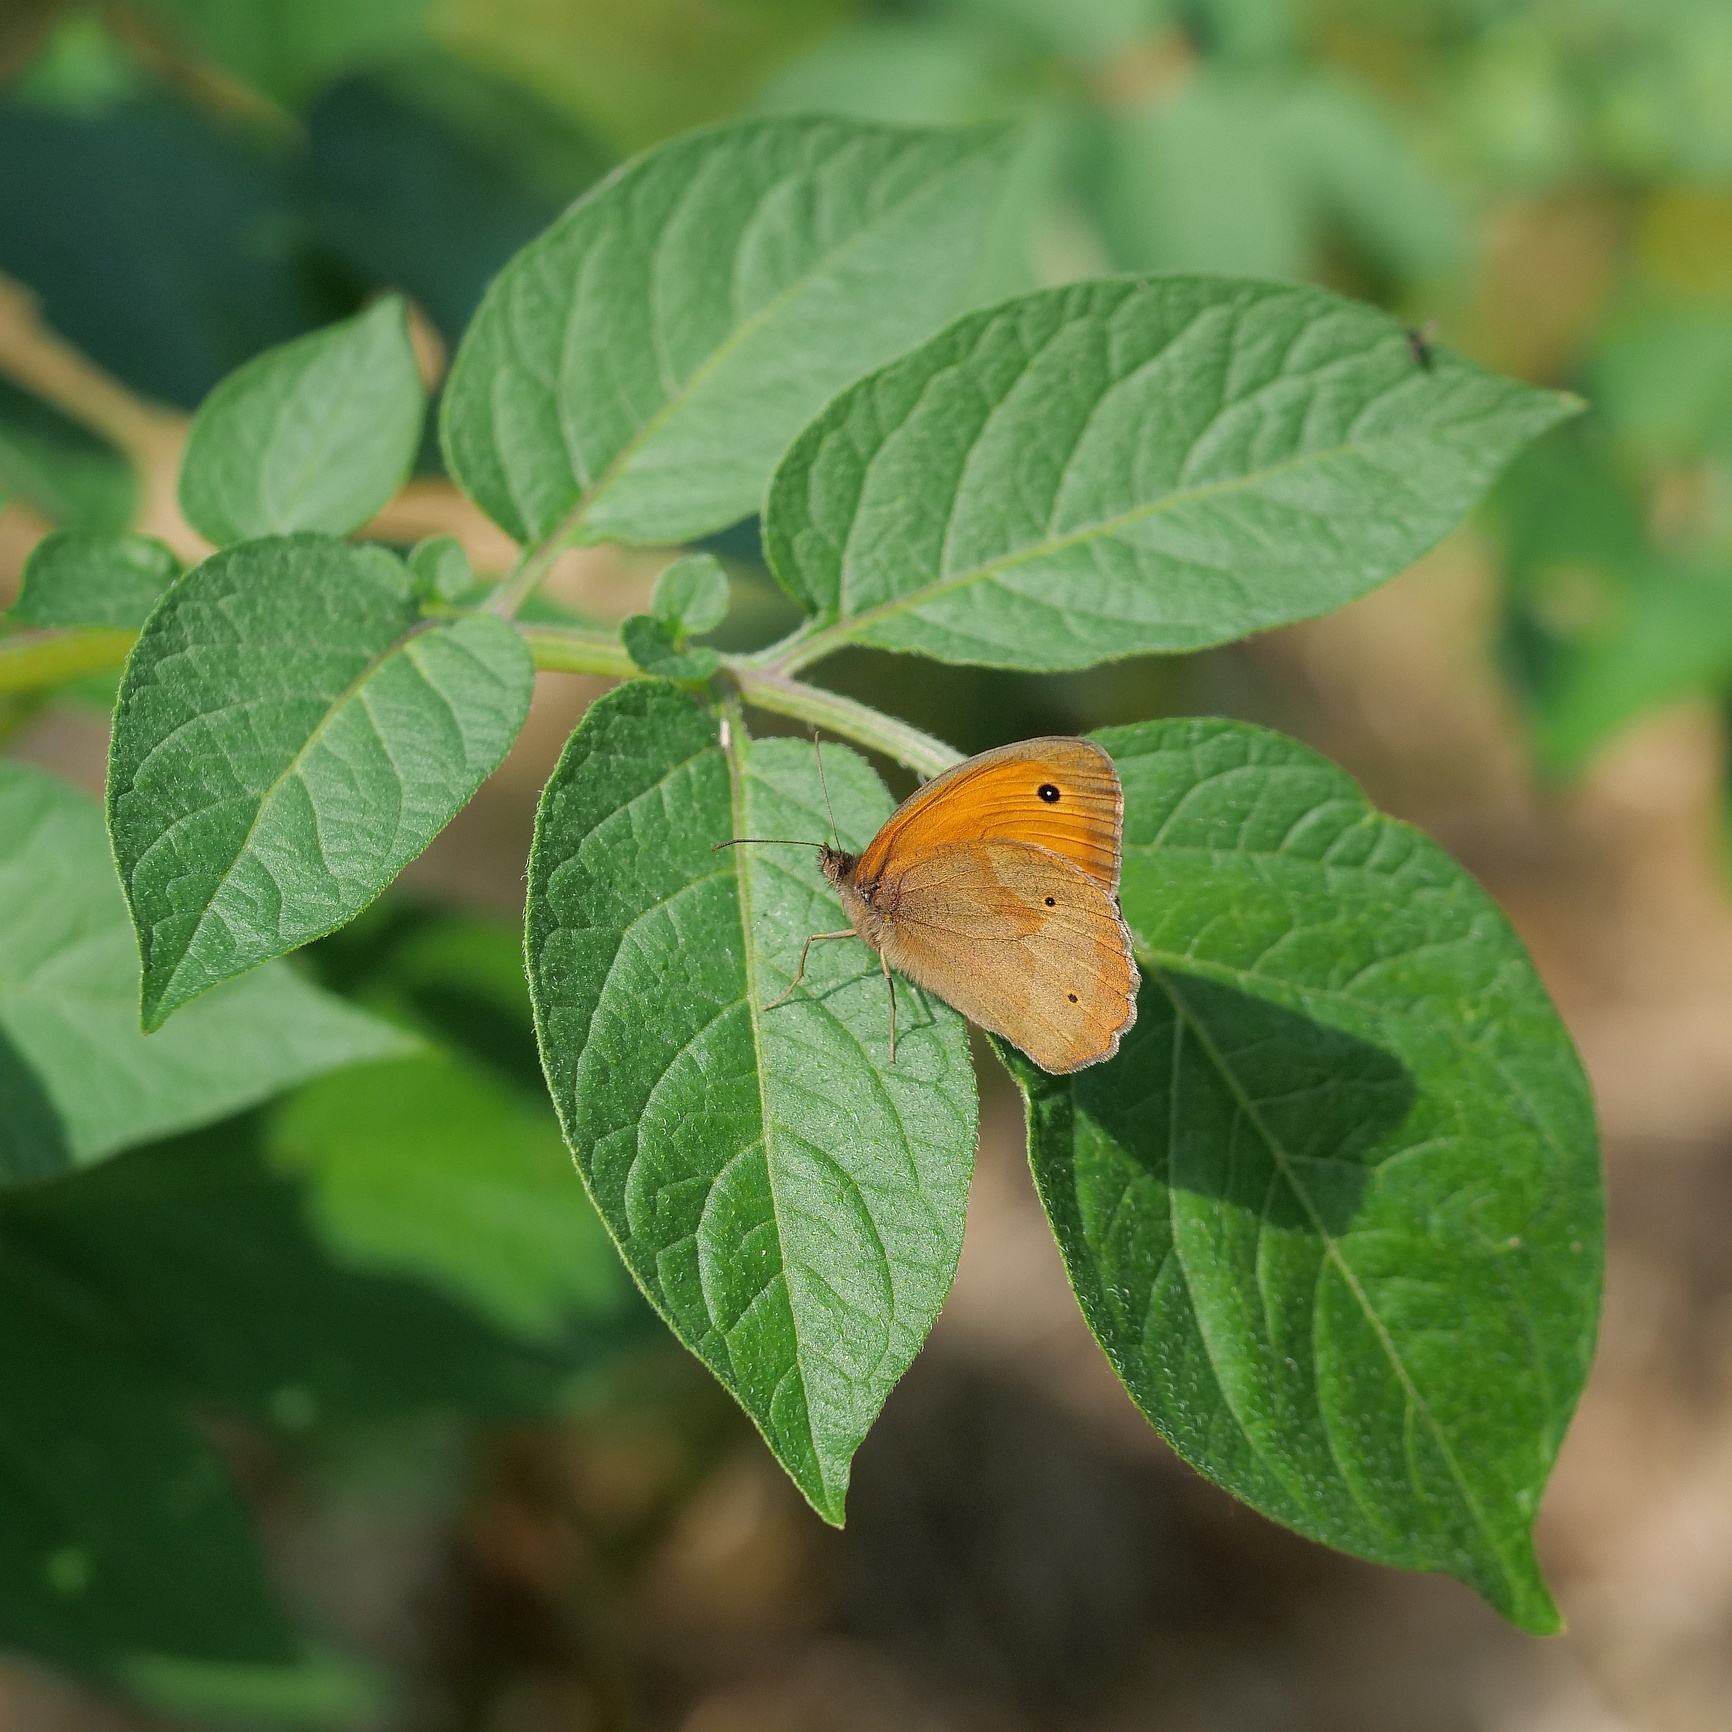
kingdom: Animalia
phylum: Arthropoda
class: Insecta
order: Lepidoptera
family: Nymphalidae
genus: Maniola
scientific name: Maniola jurtina
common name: Meadow brown
